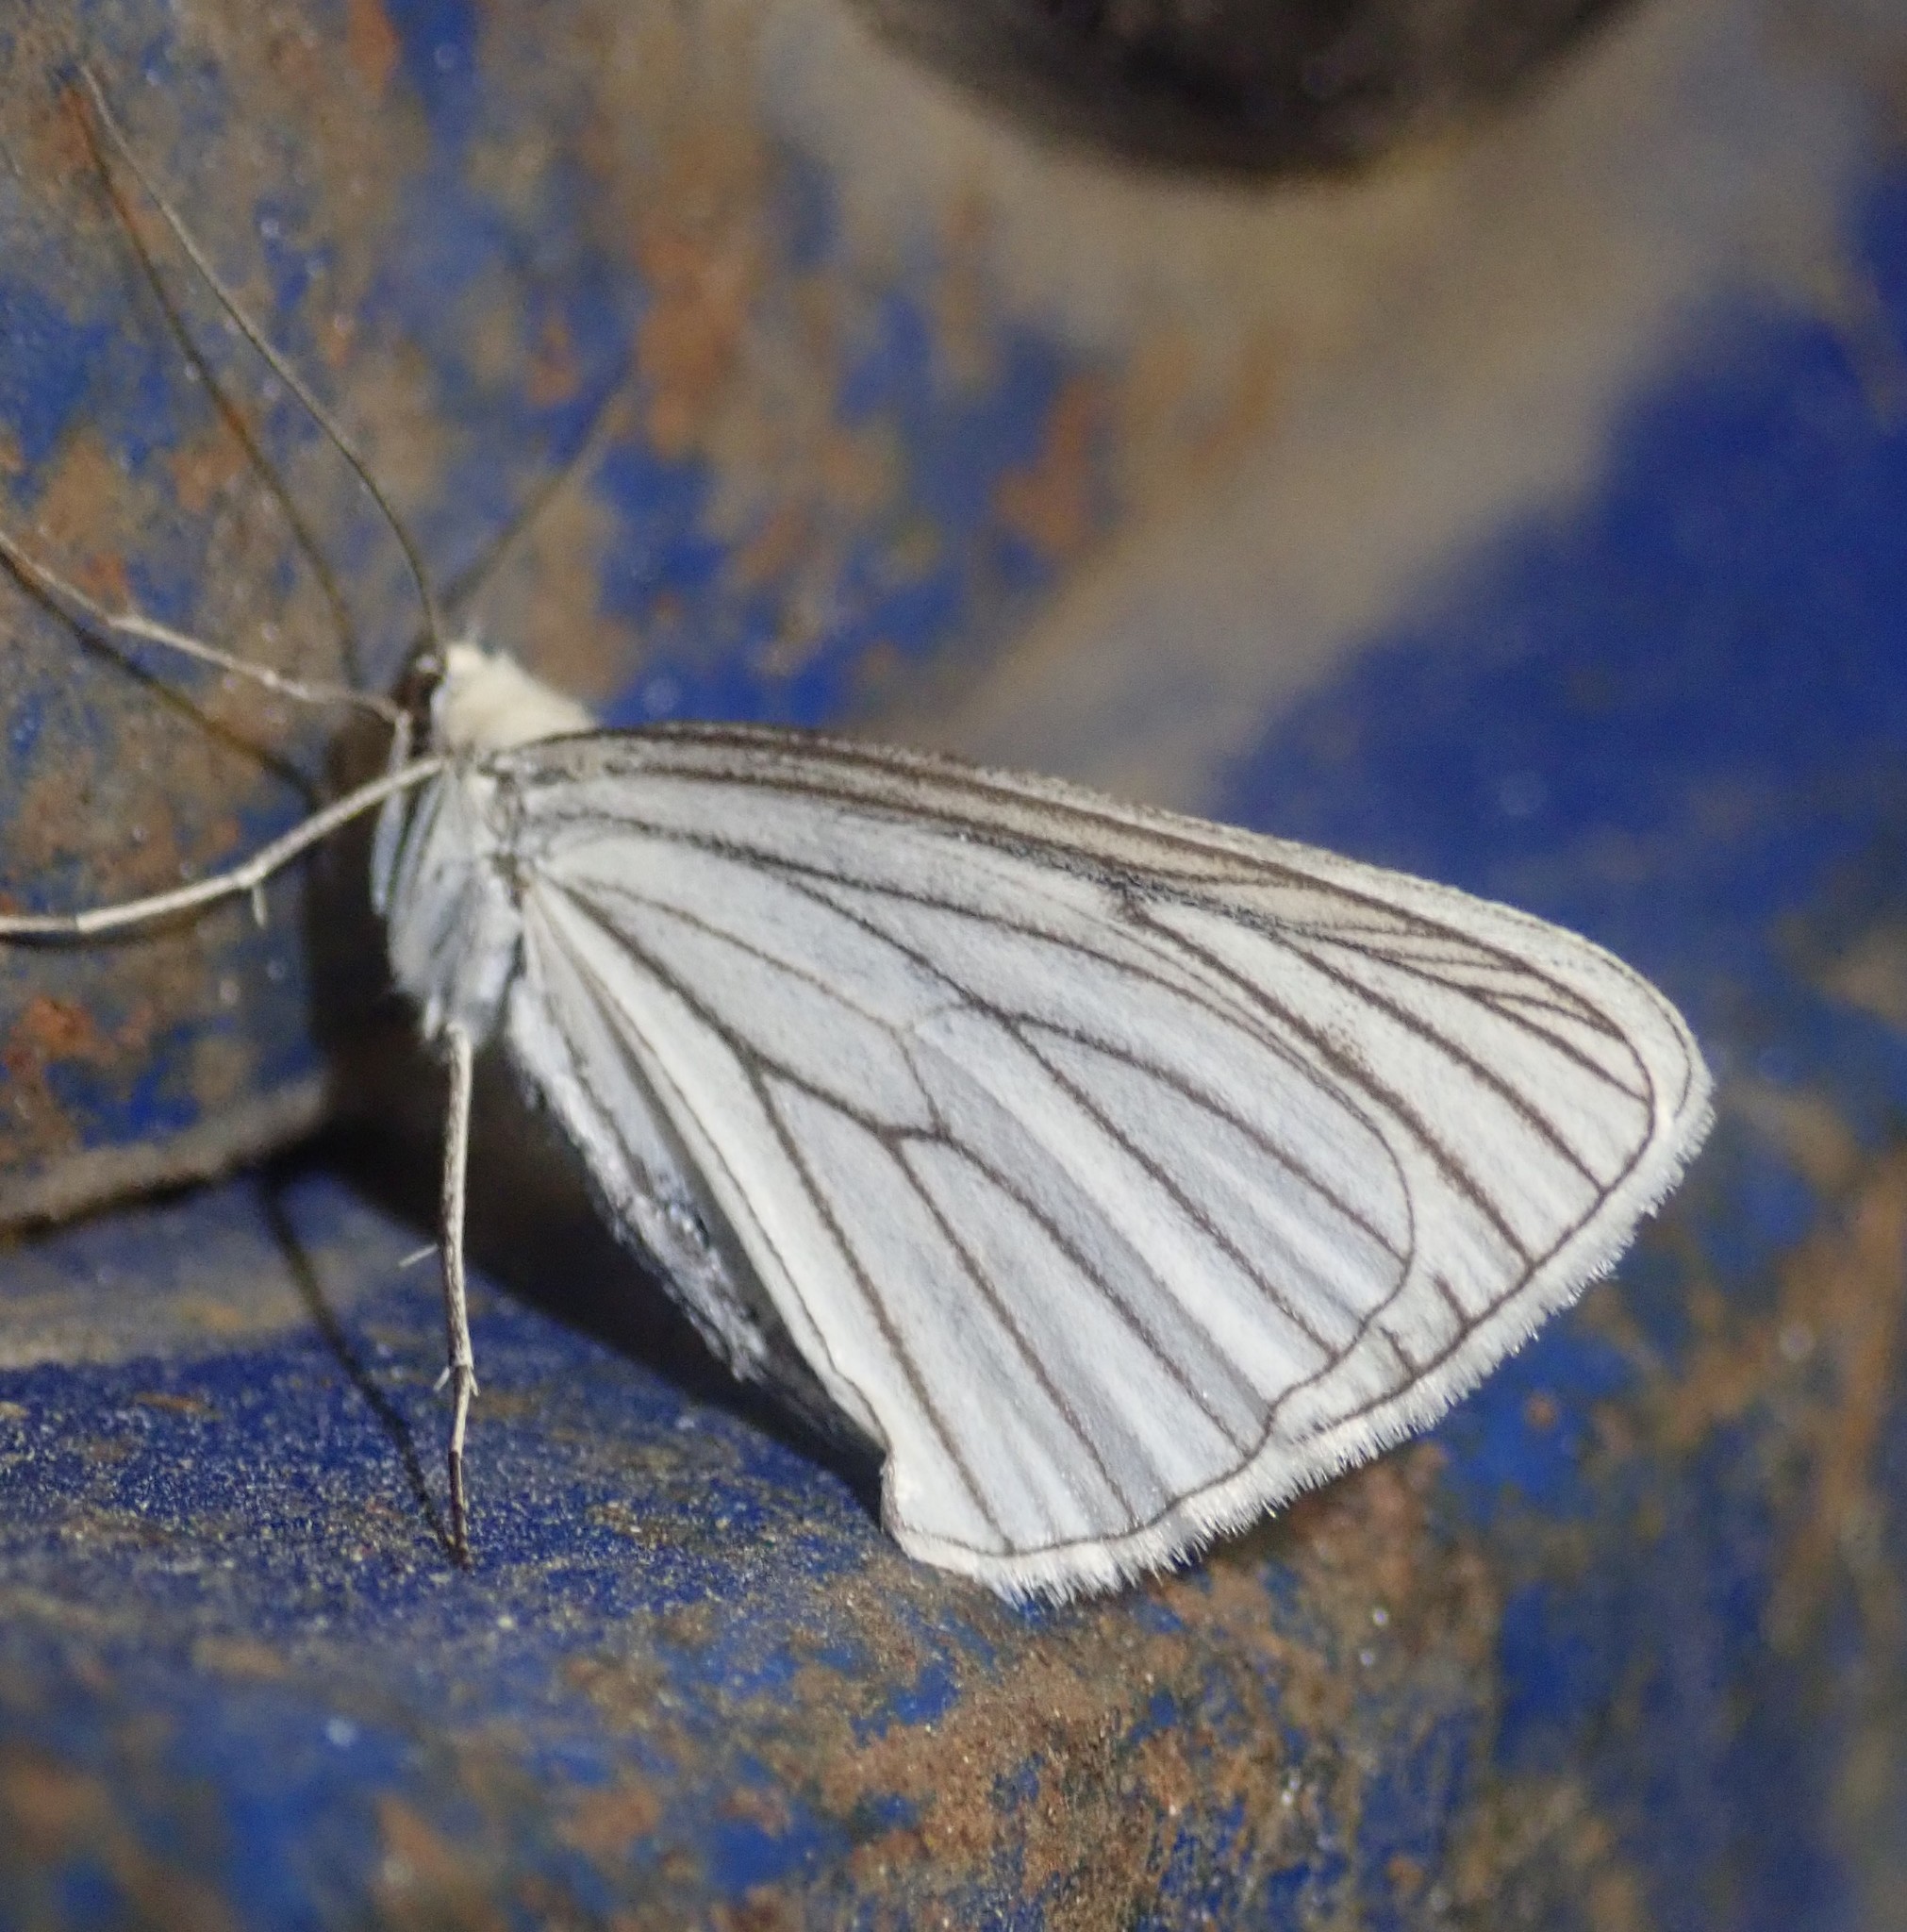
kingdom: Animalia
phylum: Arthropoda
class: Insecta
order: Lepidoptera
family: Geometridae
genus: Siona
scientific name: Siona lineata
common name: Black-veined moth
